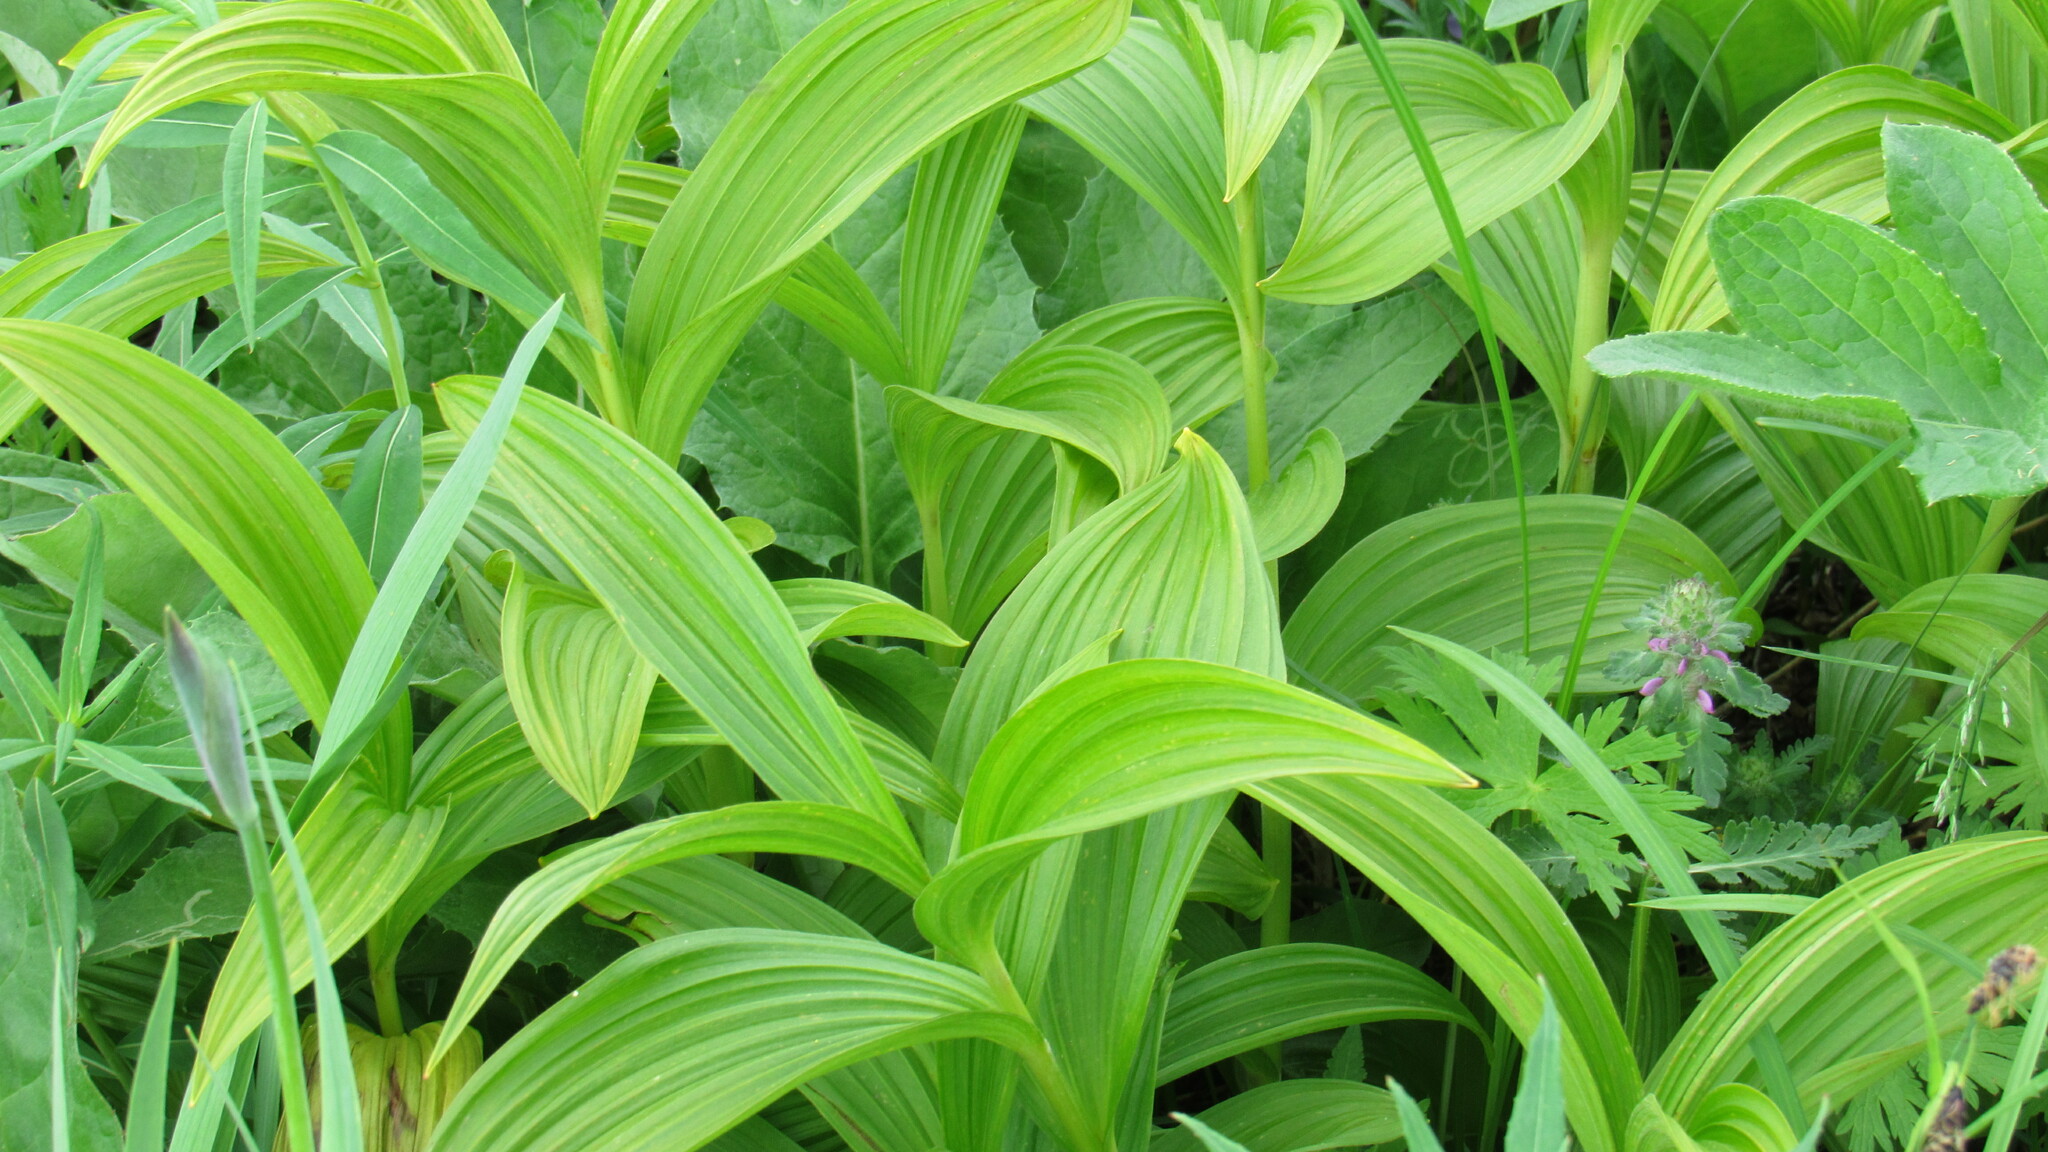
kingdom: Plantae
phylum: Tracheophyta
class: Liliopsida
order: Liliales
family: Melanthiaceae
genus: Veratrum
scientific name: Veratrum oxysepalum
